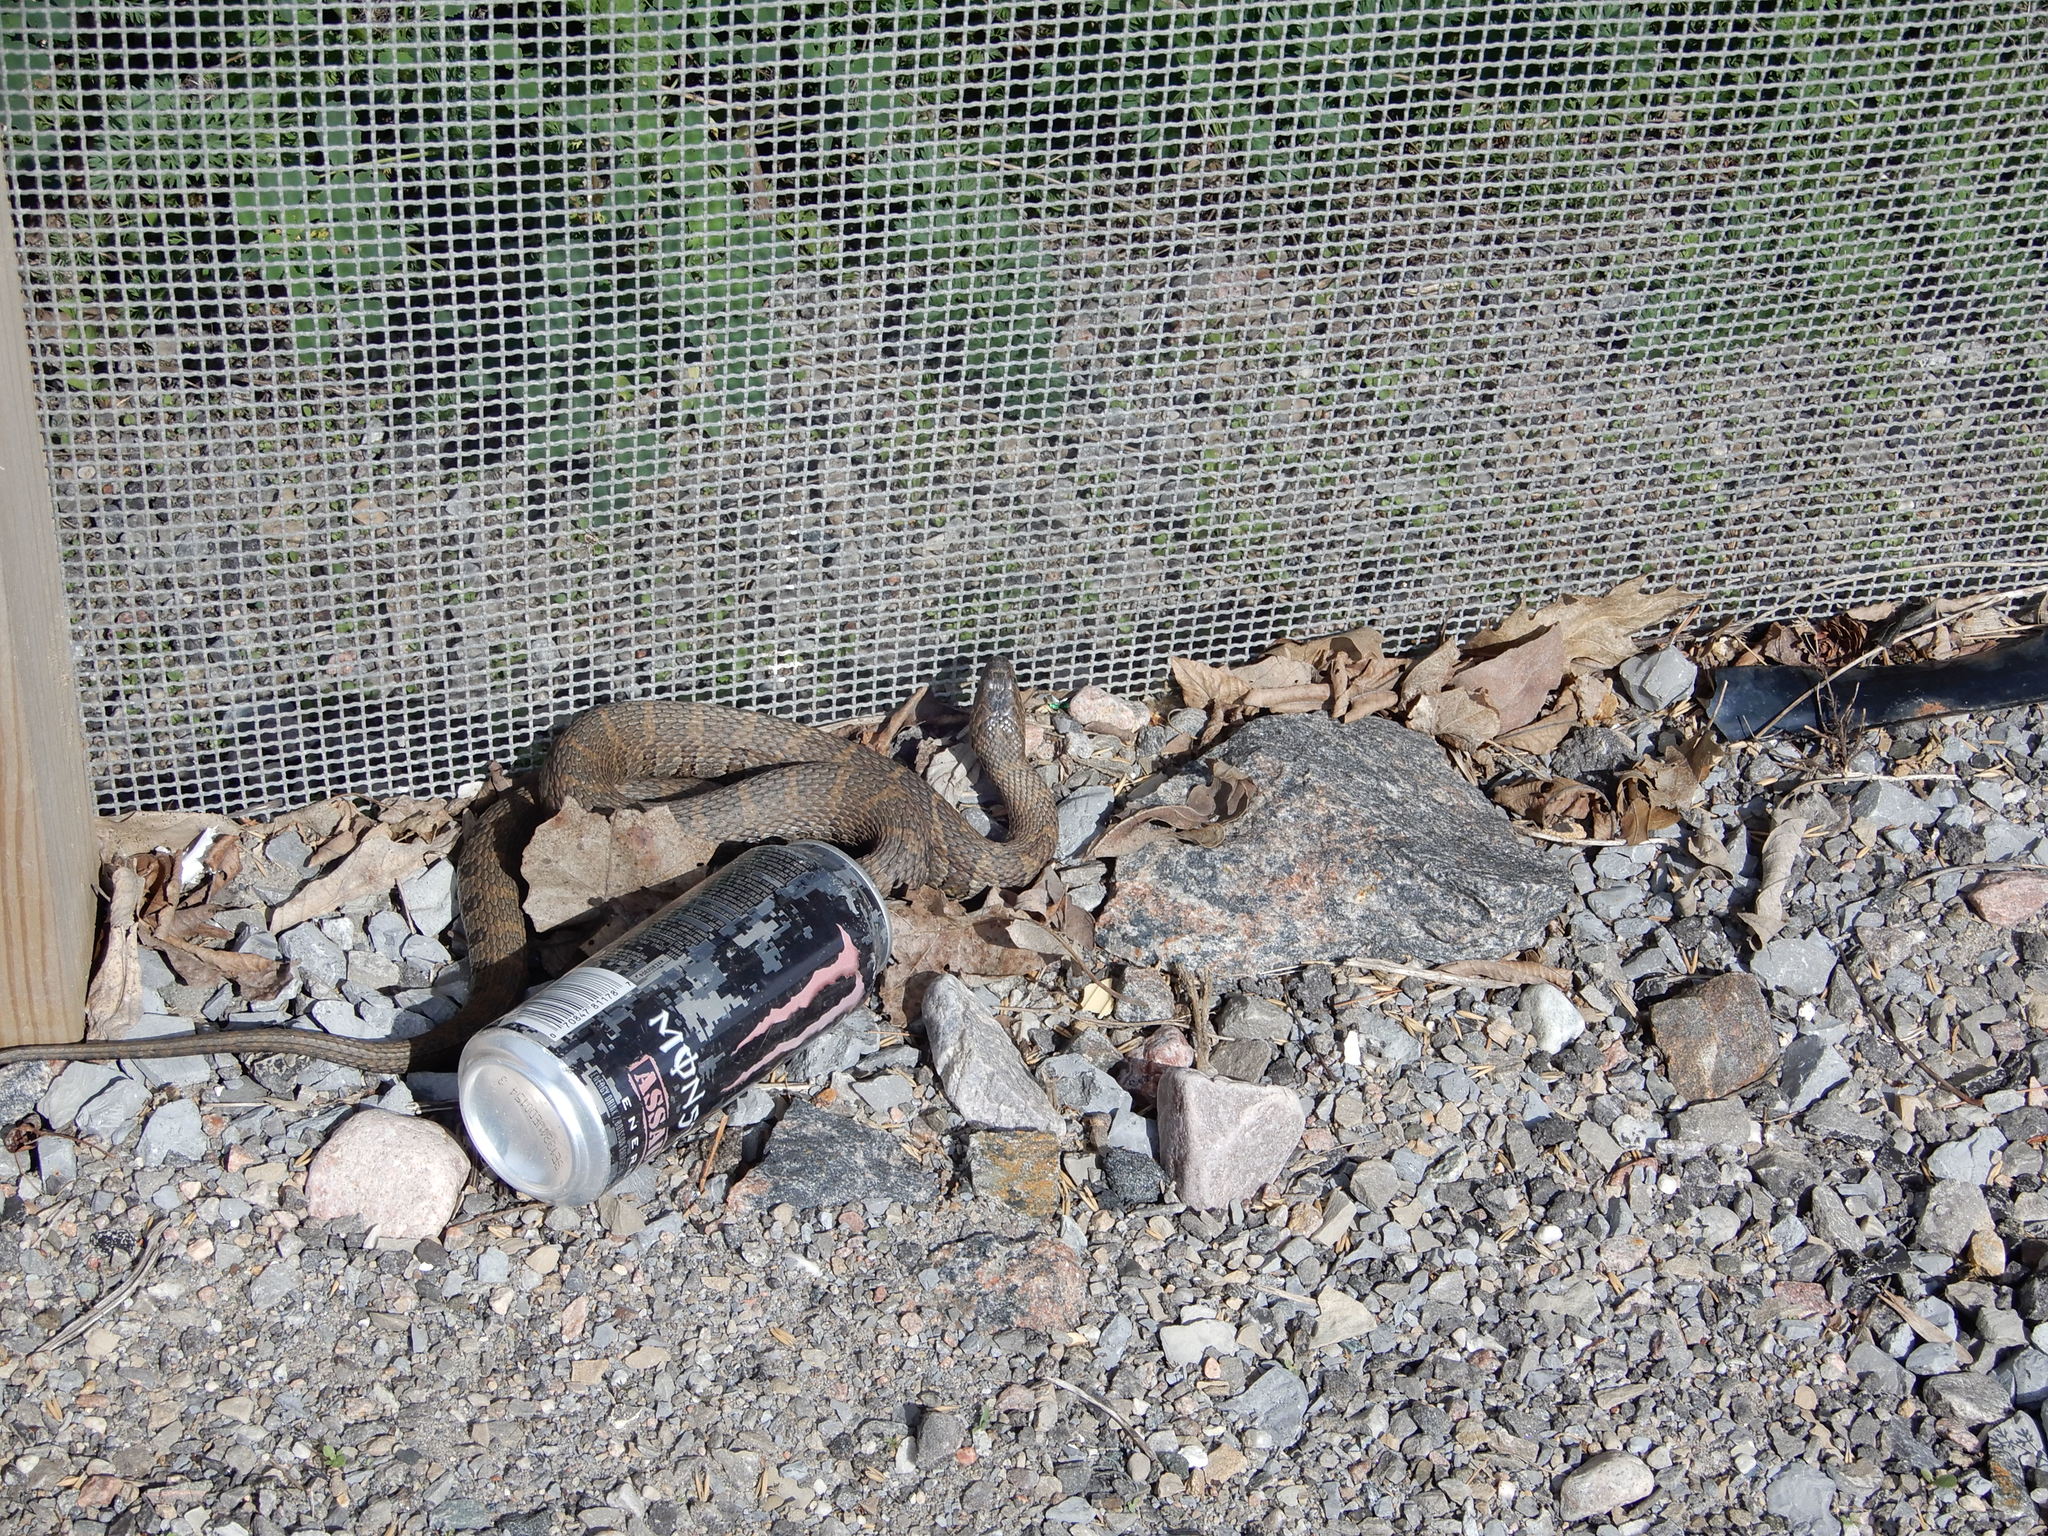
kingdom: Animalia
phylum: Chordata
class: Squamata
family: Colubridae
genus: Nerodia
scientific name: Nerodia sipedon
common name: Northern water snake
